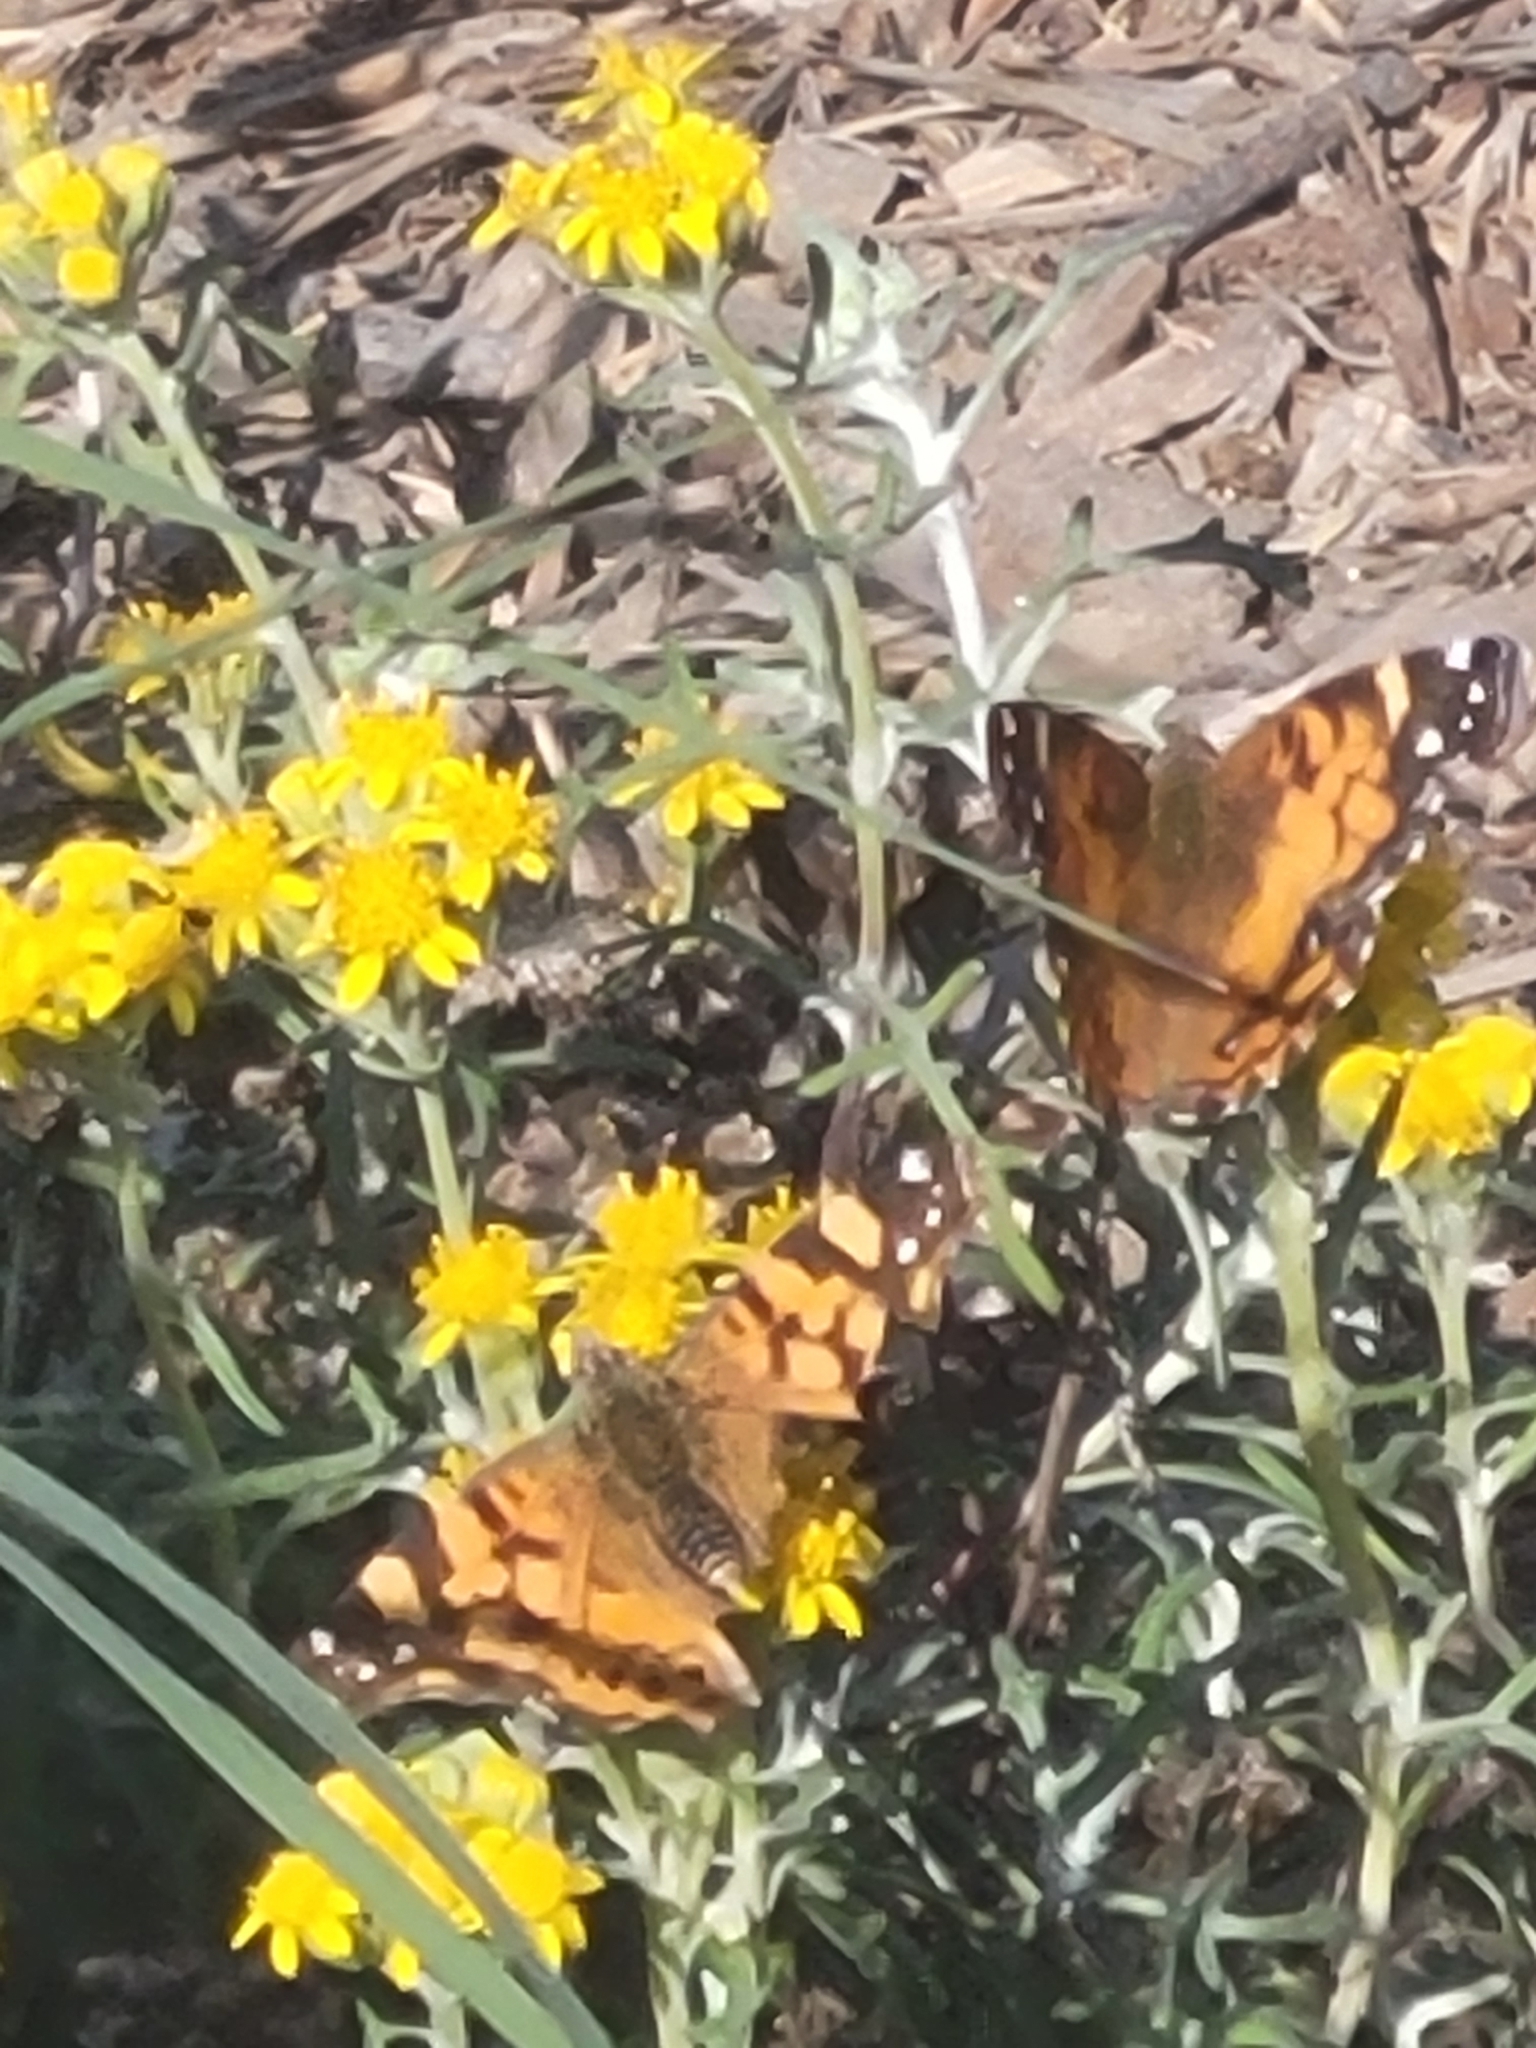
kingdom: Animalia
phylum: Arthropoda
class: Insecta
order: Lepidoptera
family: Nymphalidae
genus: Vanessa
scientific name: Vanessa virginiensis
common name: American lady
